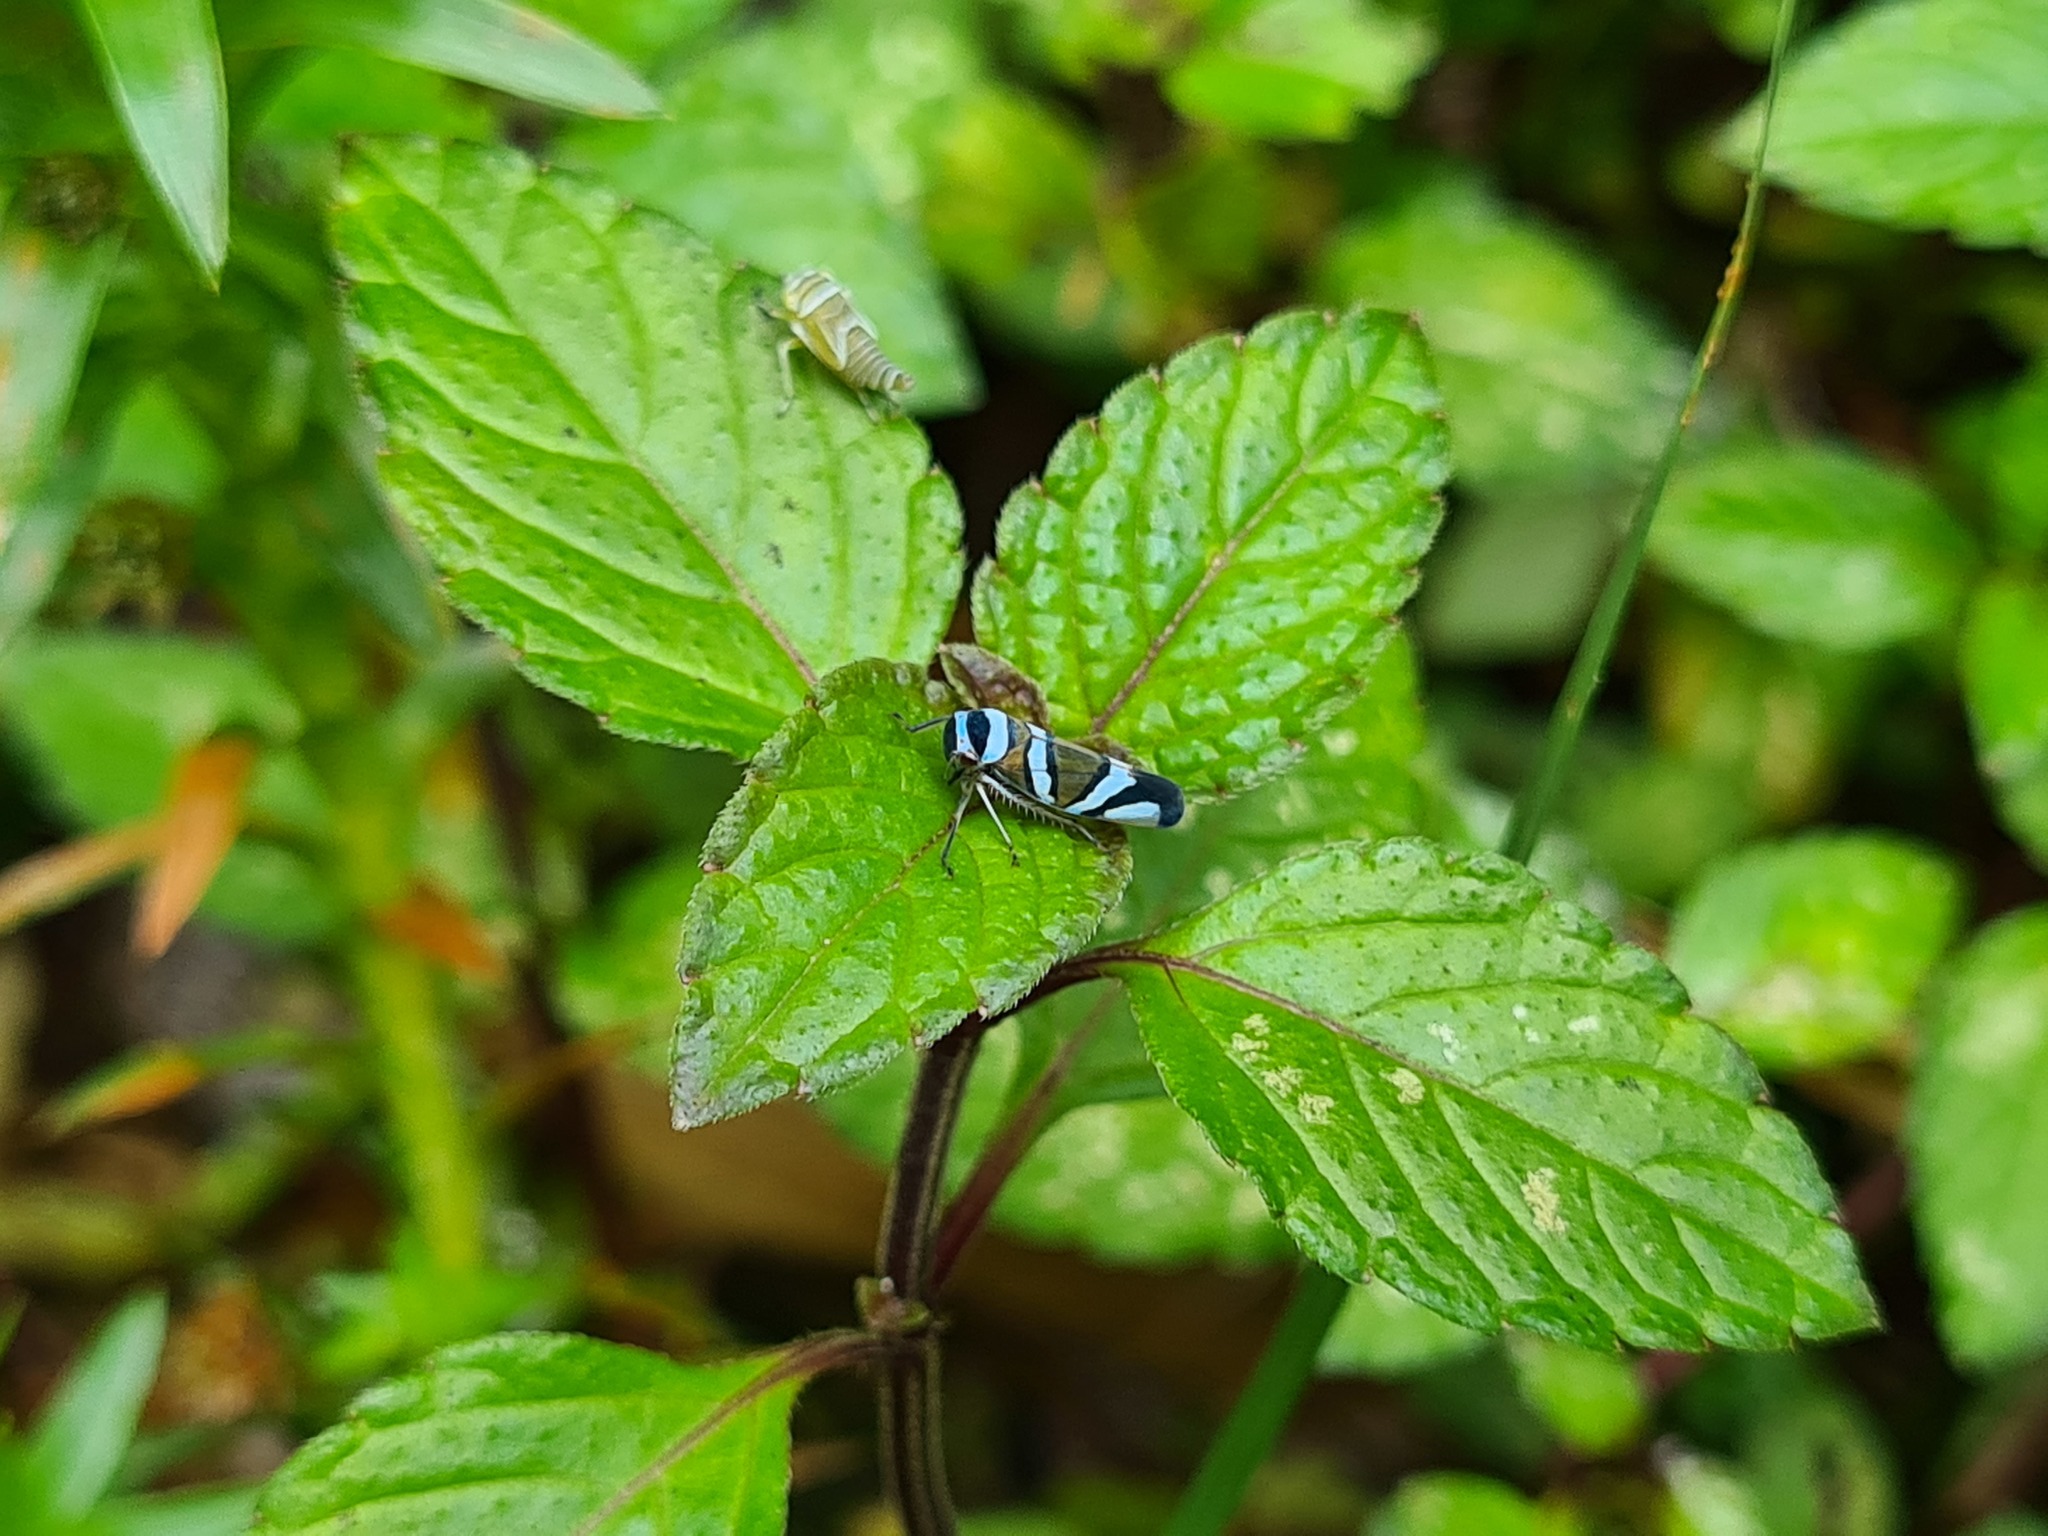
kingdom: Animalia
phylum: Arthropoda
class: Insecta
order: Hemiptera
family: Cicadellidae
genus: Macugonalia
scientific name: Macugonalia moesta
